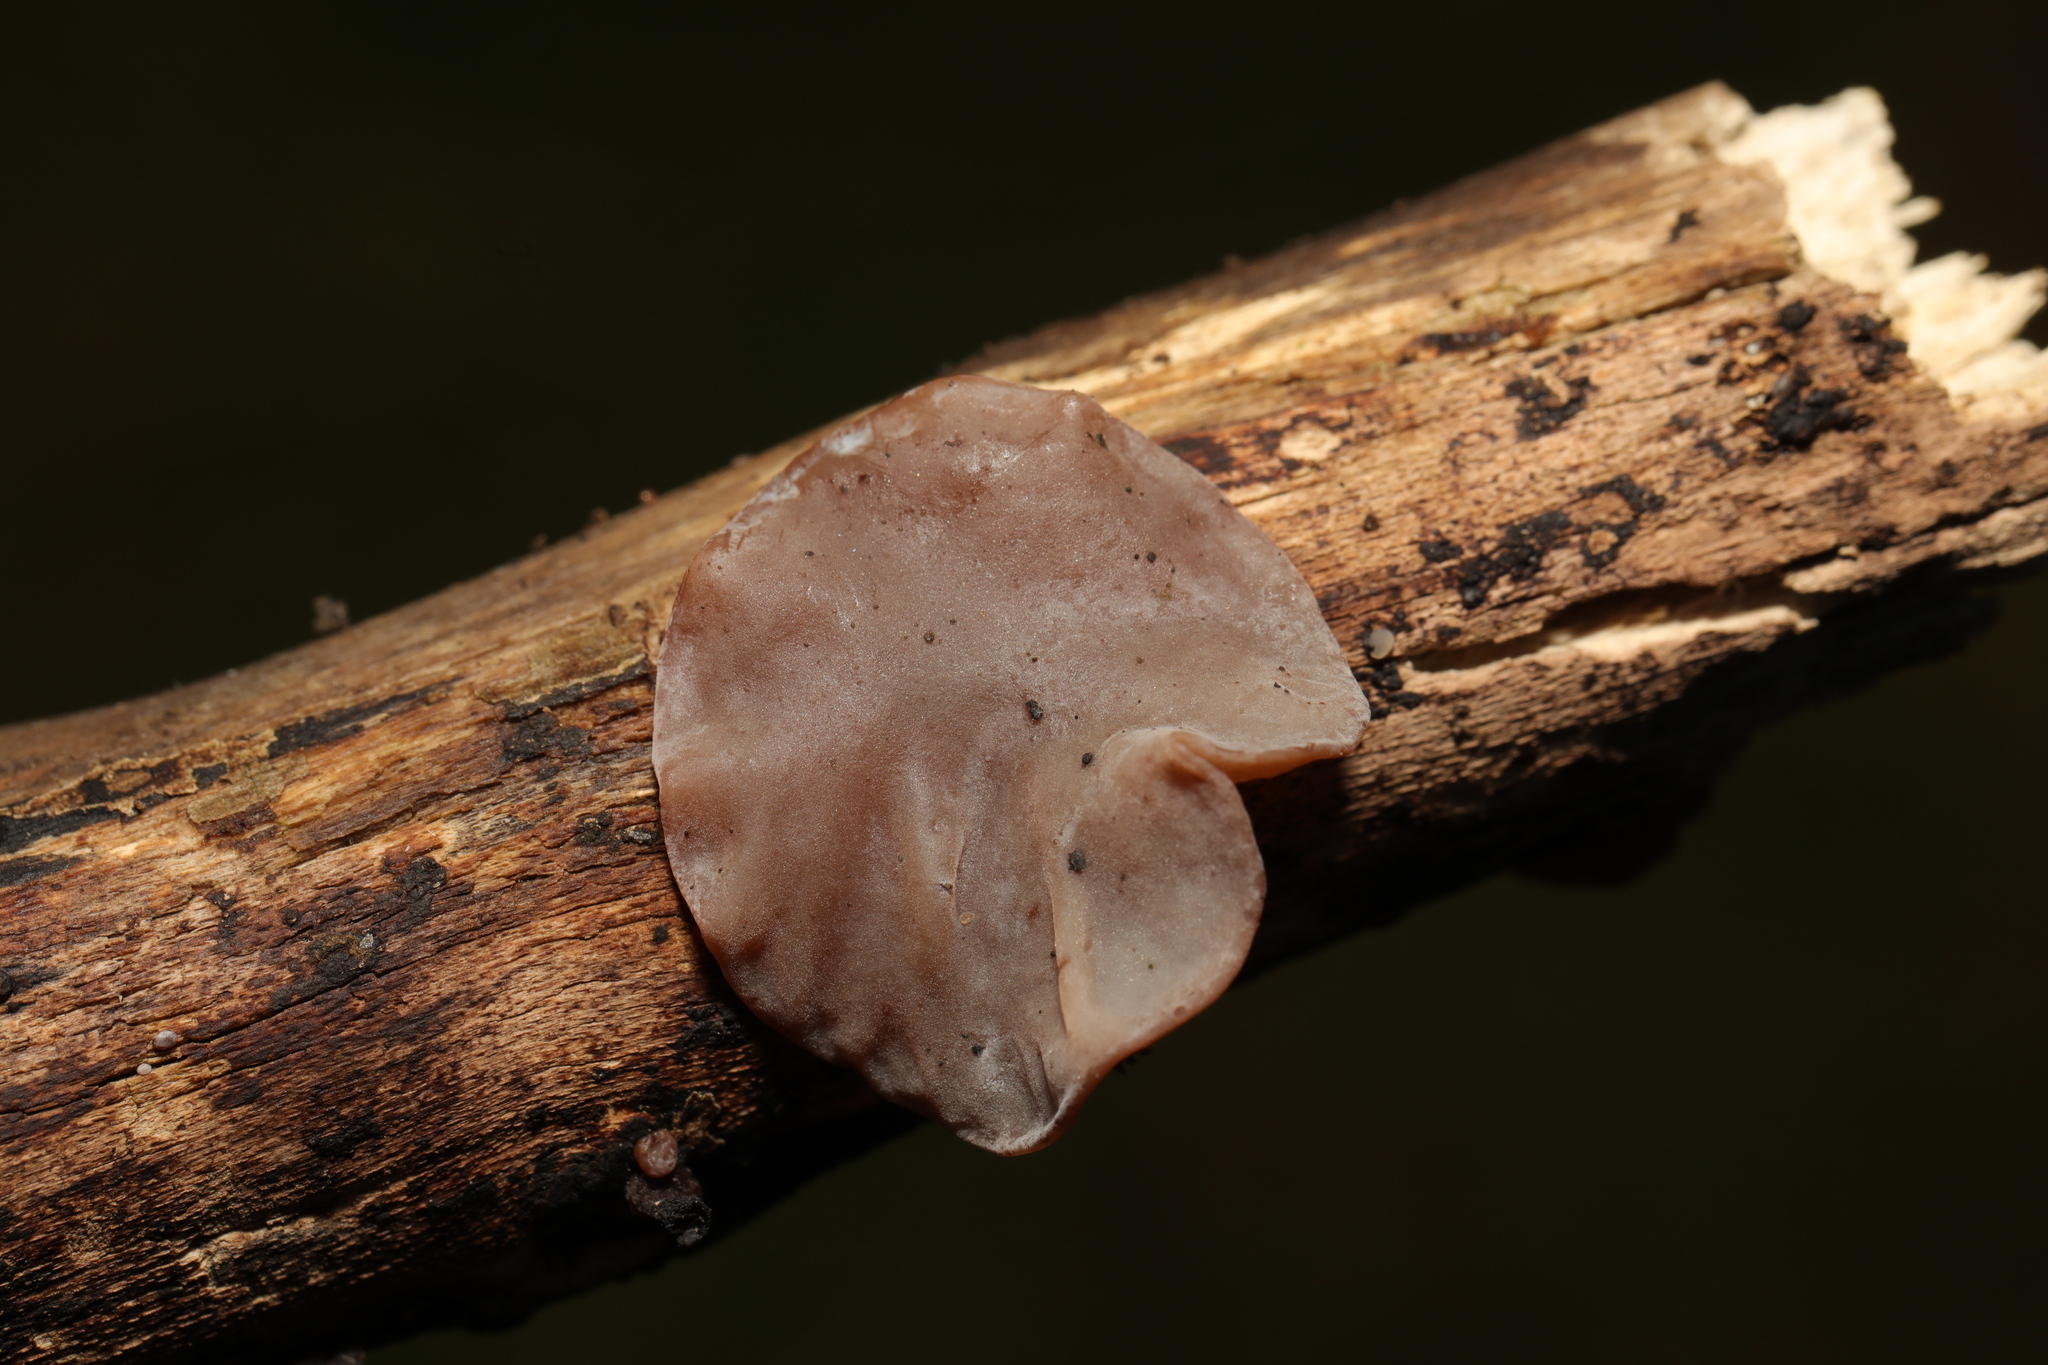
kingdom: Fungi
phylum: Basidiomycota
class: Agaricomycetes
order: Auriculariales
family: Auriculariaceae
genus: Auricularia
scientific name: Auricularia auricula-judae
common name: Jelly ear
